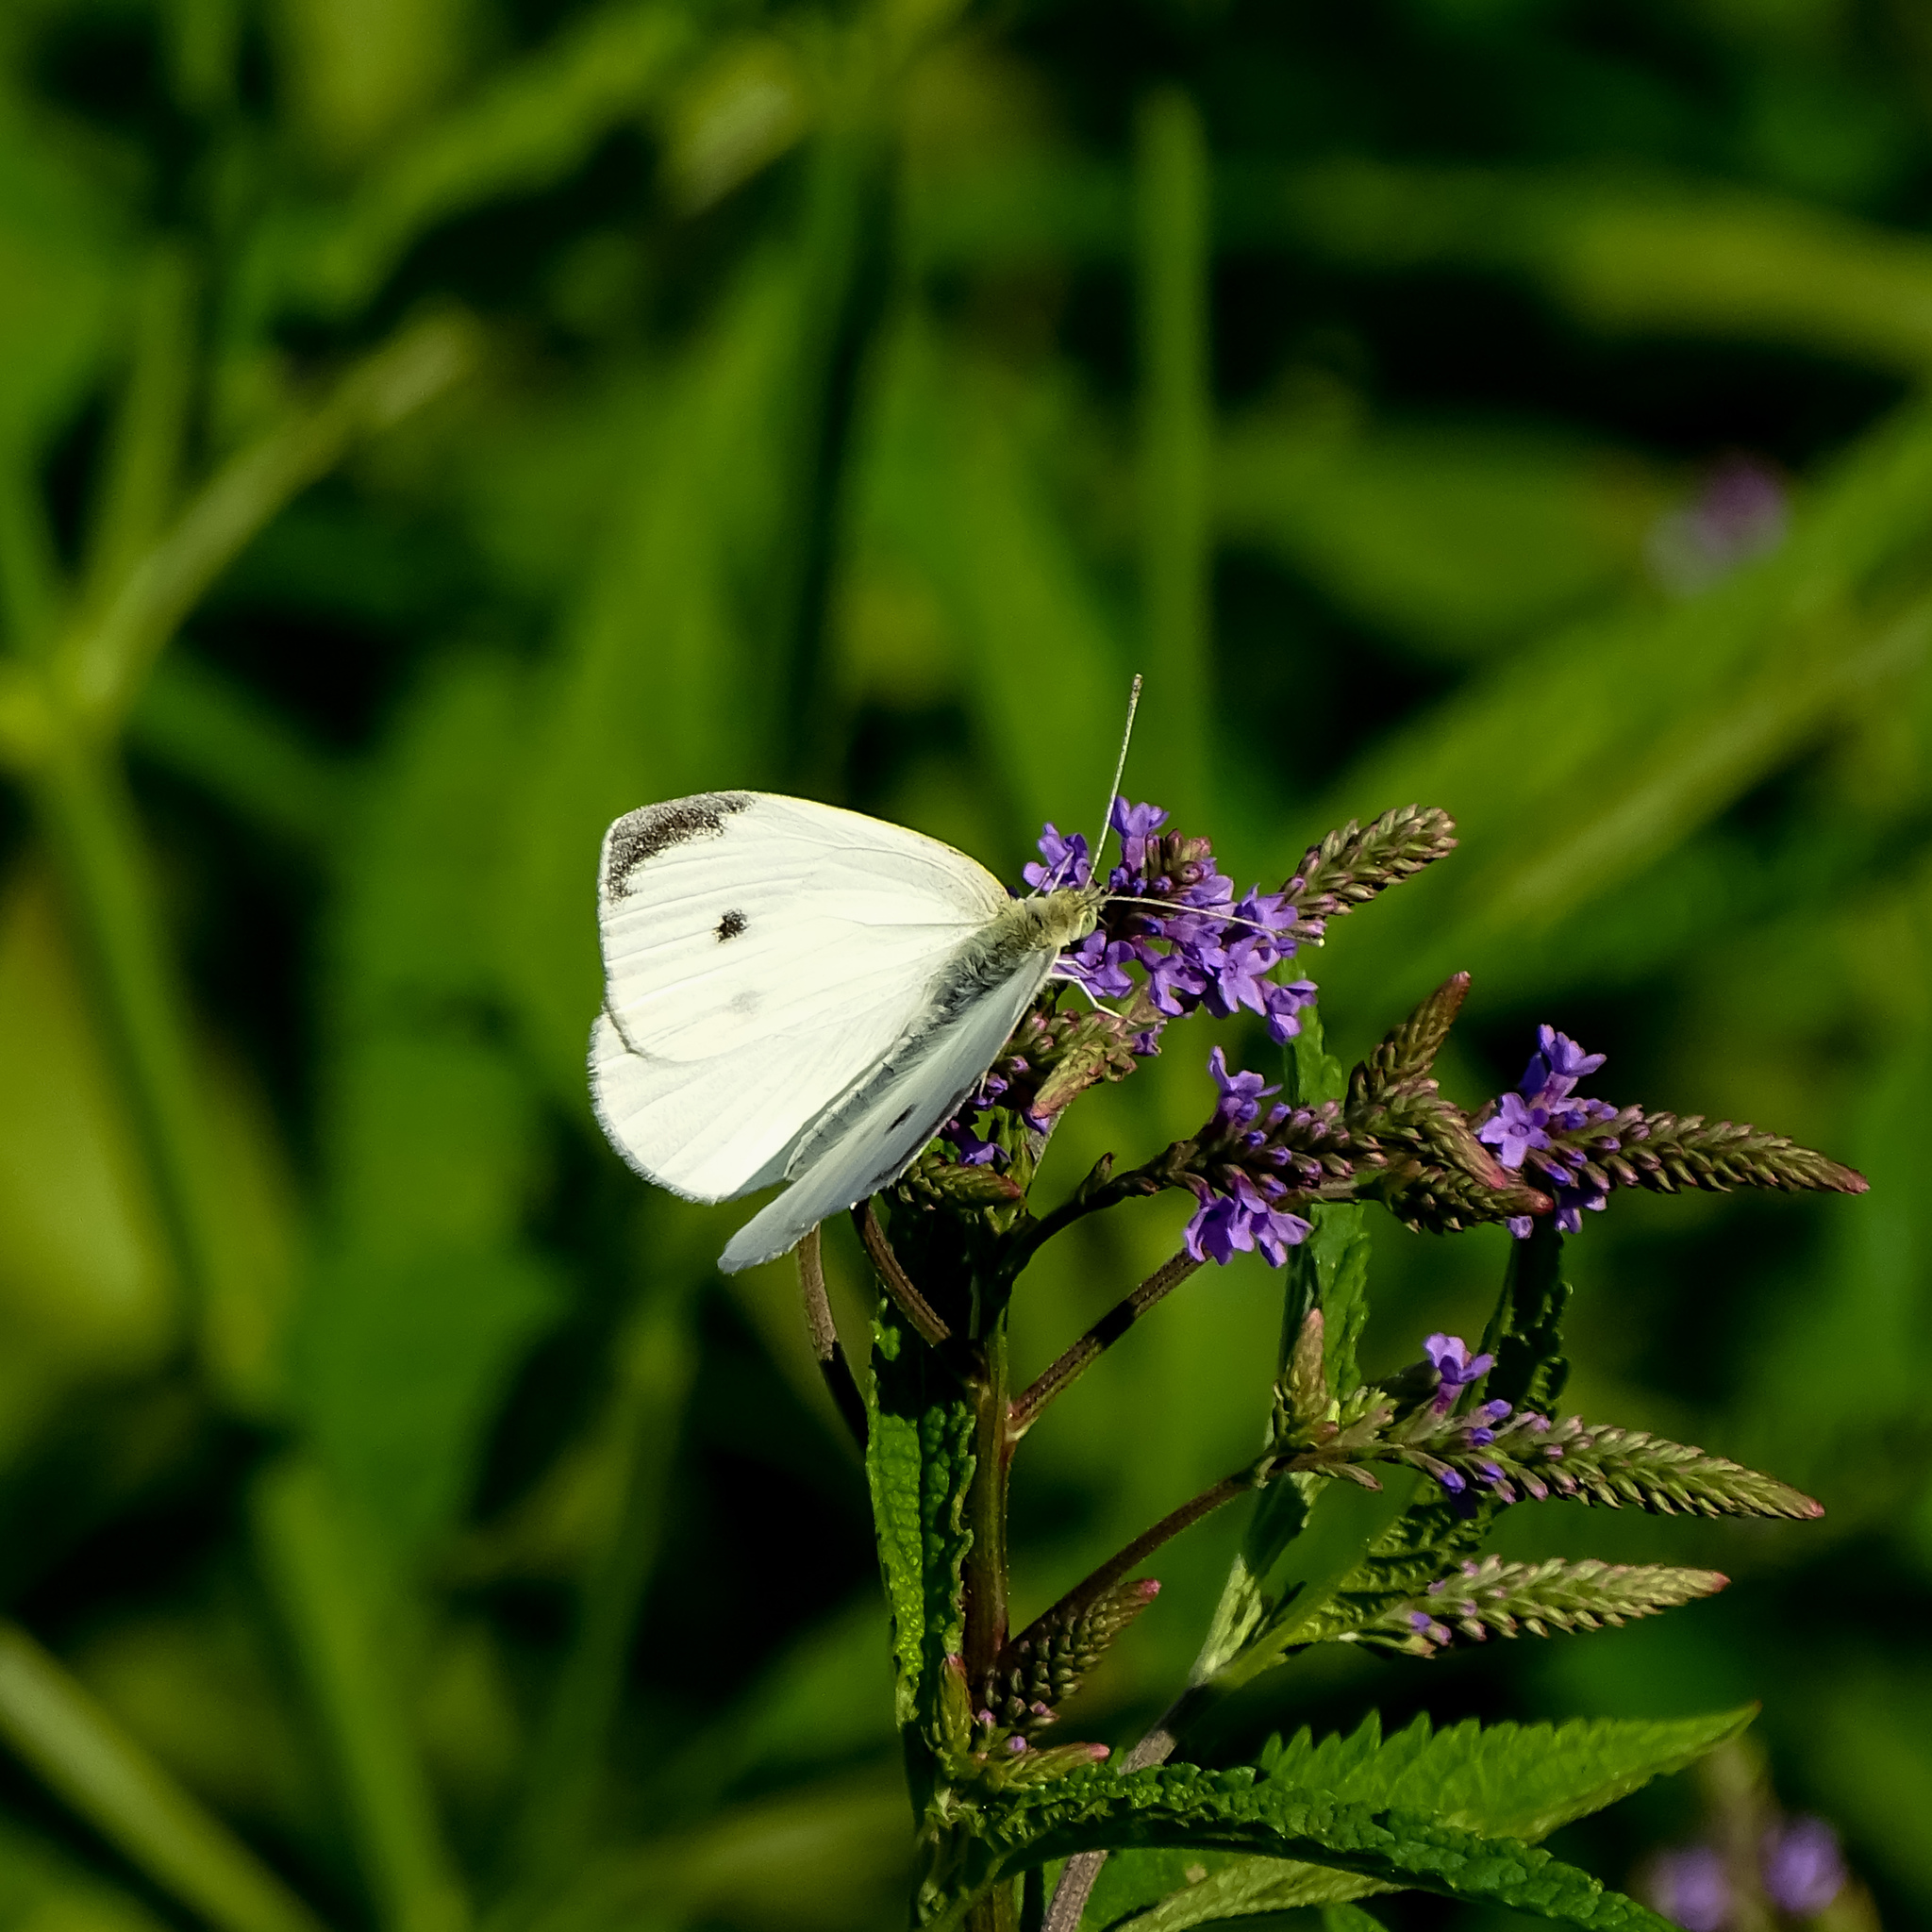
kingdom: Animalia
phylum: Arthropoda
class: Insecta
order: Lepidoptera
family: Pieridae
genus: Pieris
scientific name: Pieris rapae
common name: Small white
